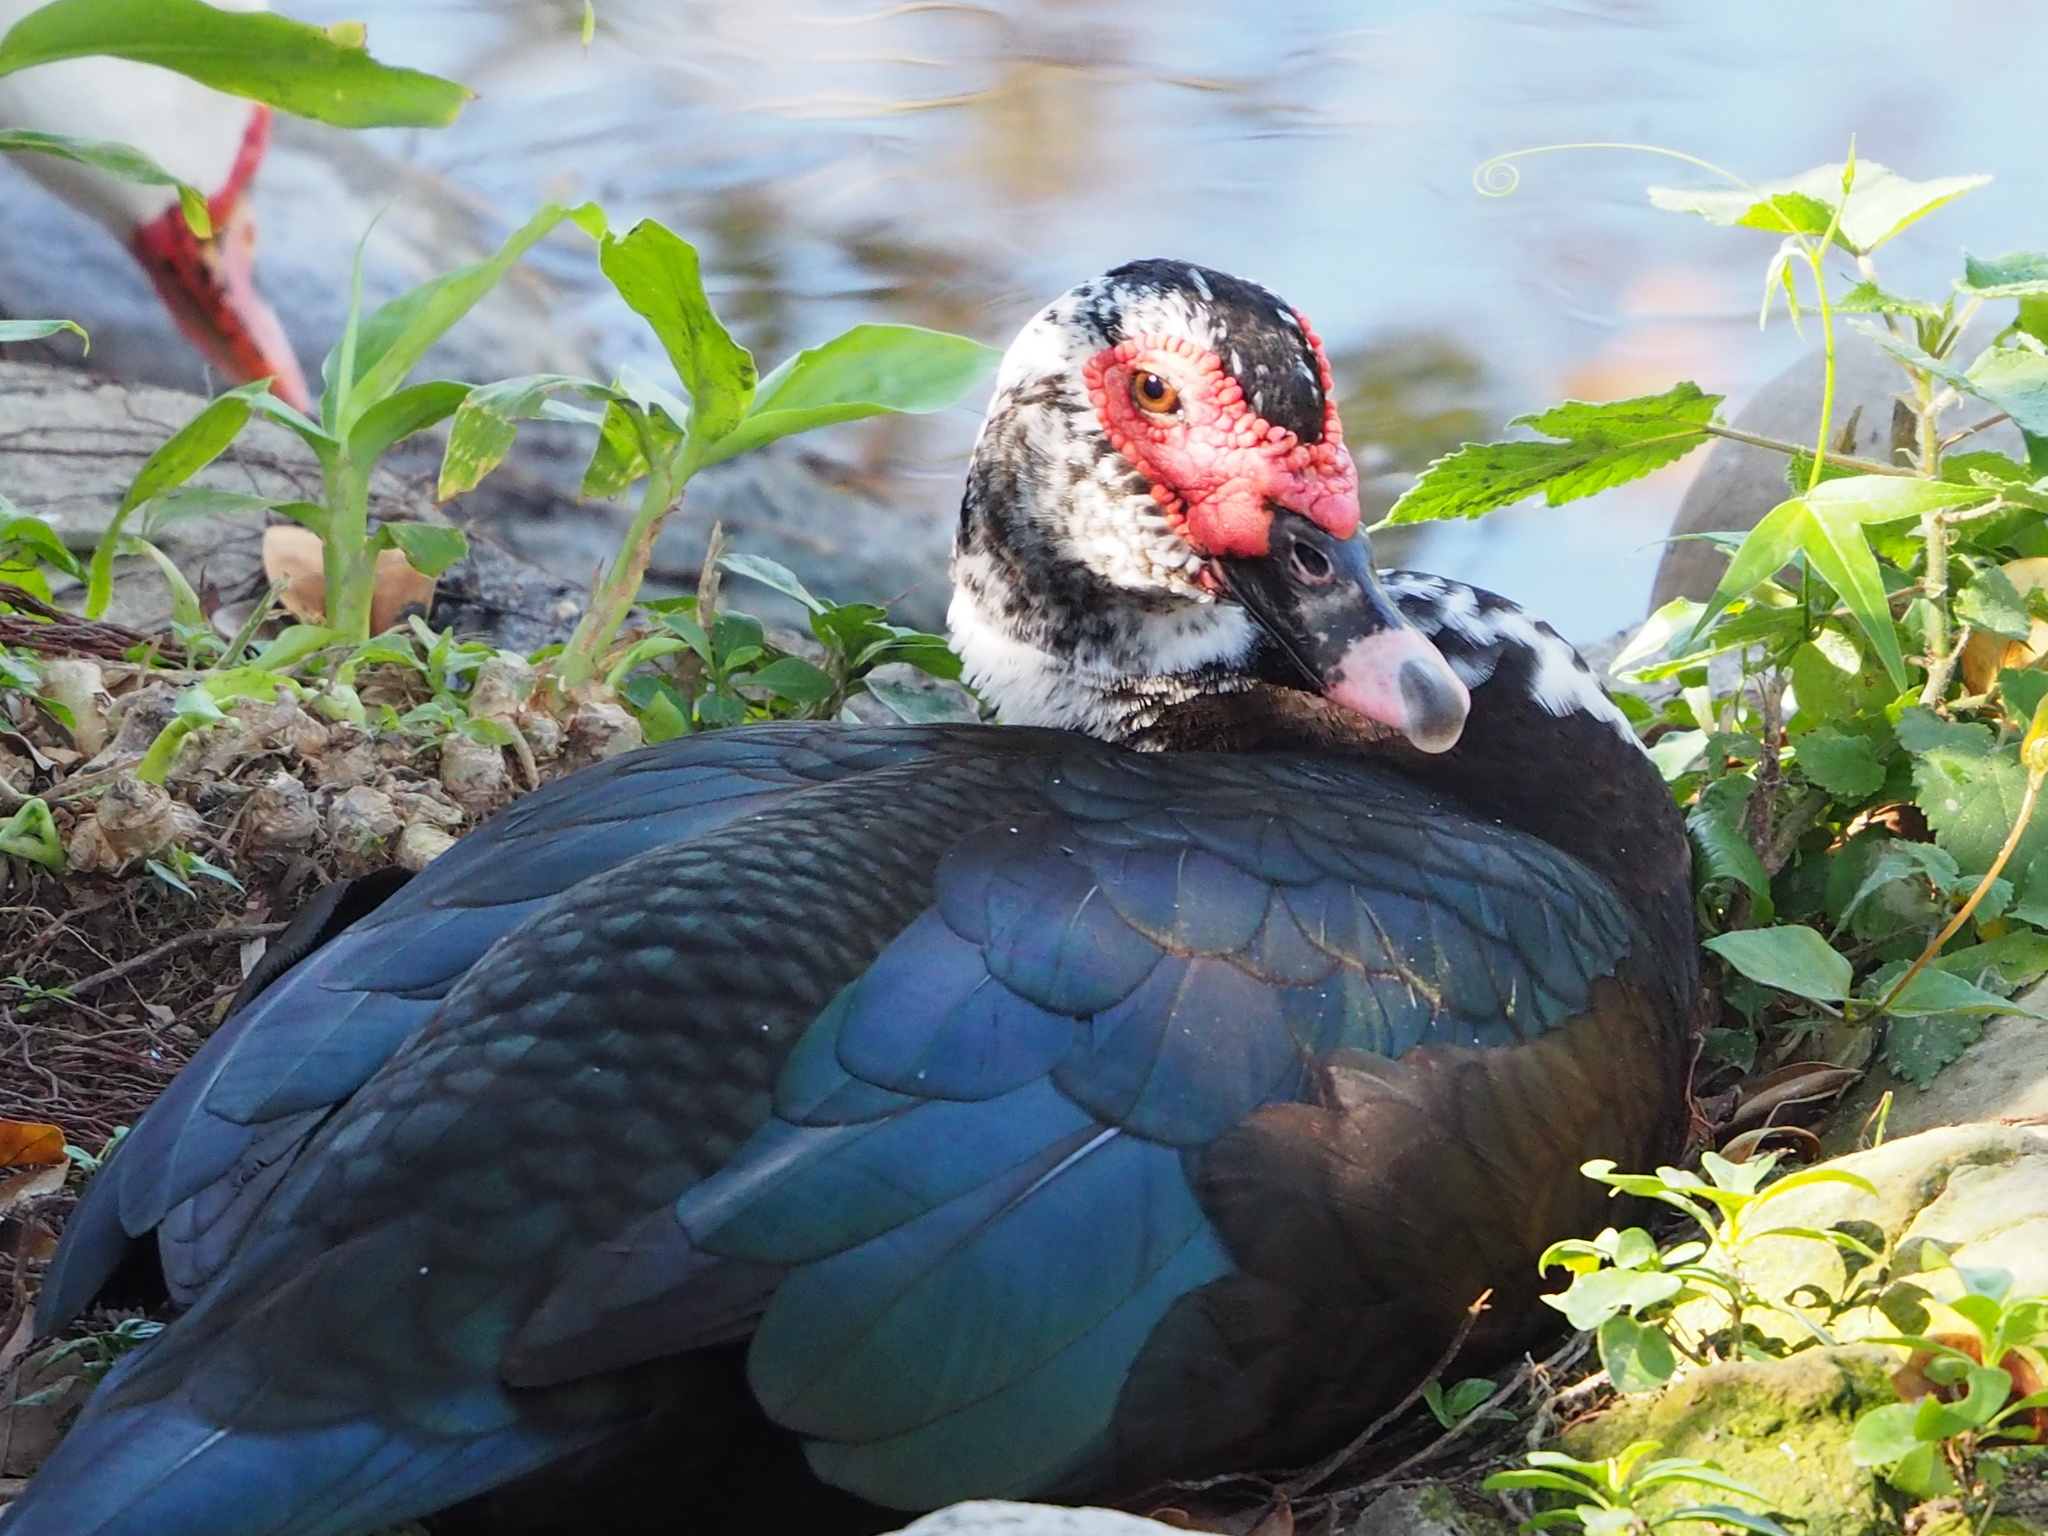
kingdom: Animalia
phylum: Chordata
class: Aves
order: Anseriformes
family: Anatidae
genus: Cairina
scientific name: Cairina moschata
